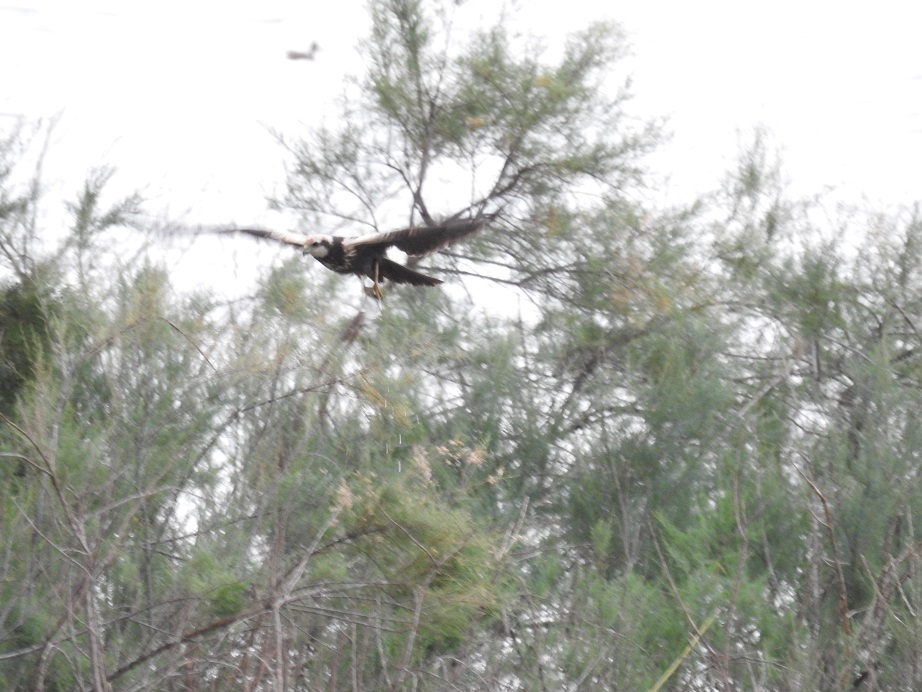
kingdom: Animalia
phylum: Chordata
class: Aves
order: Accipitriformes
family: Accipitridae
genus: Circus
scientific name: Circus aeruginosus
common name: Western marsh harrier
